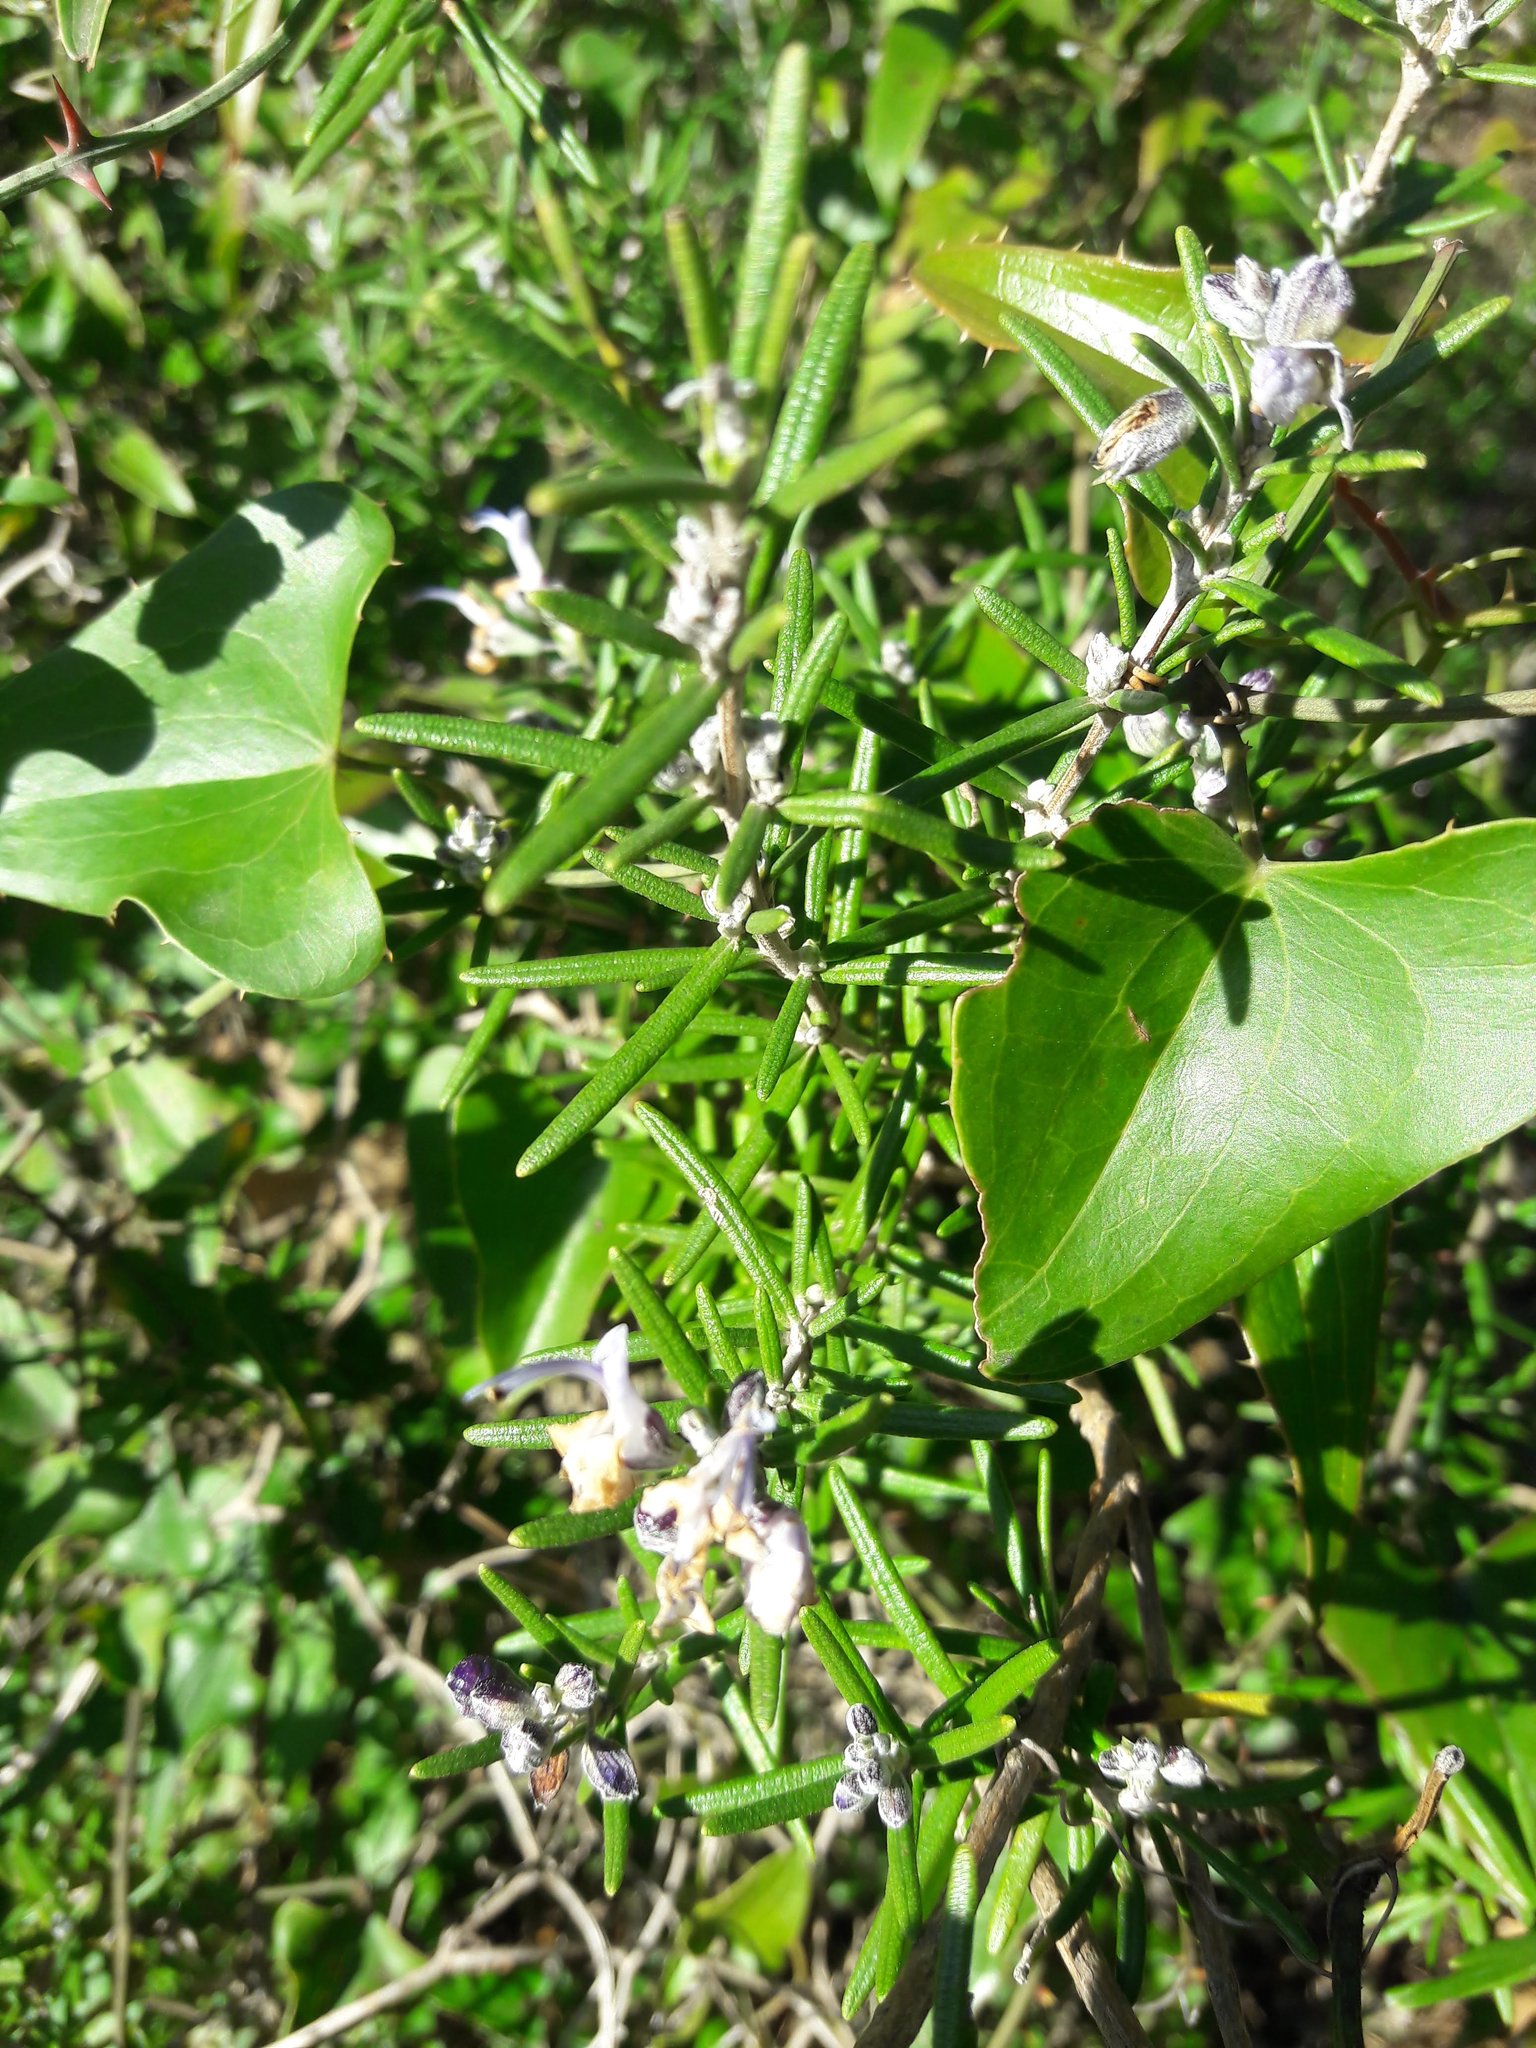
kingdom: Plantae
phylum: Tracheophyta
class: Magnoliopsida
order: Lamiales
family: Lamiaceae
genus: Salvia
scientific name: Salvia rosmarinus
